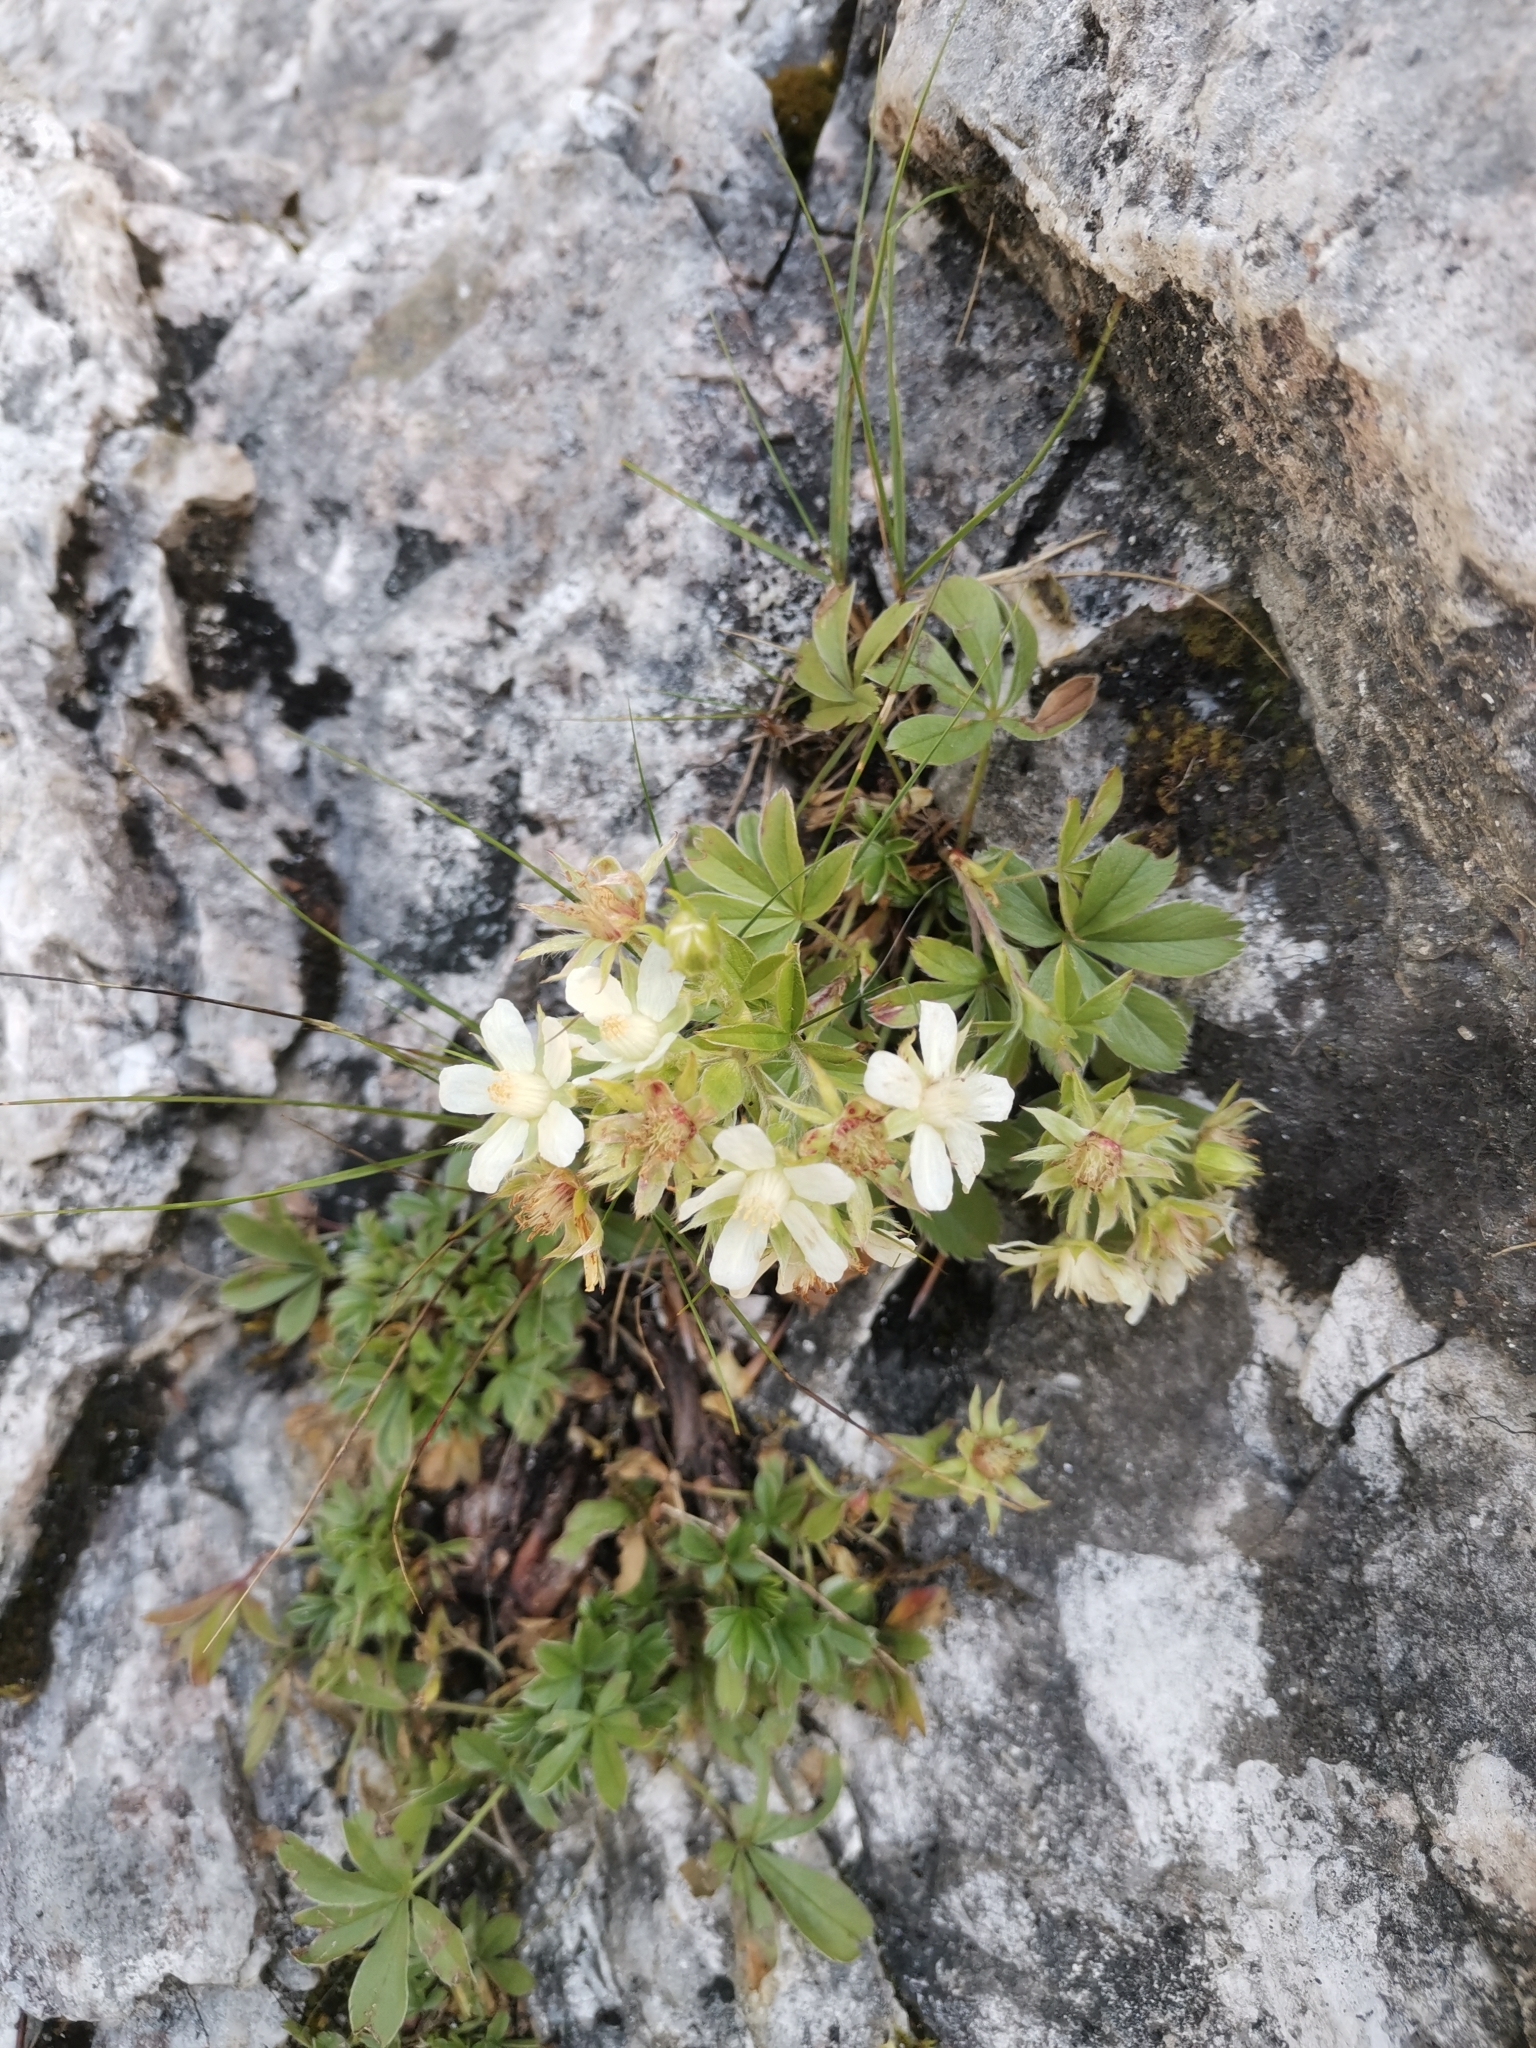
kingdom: Plantae
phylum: Tracheophyta
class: Magnoliopsida
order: Rosales
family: Rosaceae
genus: Potentilla
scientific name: Potentilla caulescens
